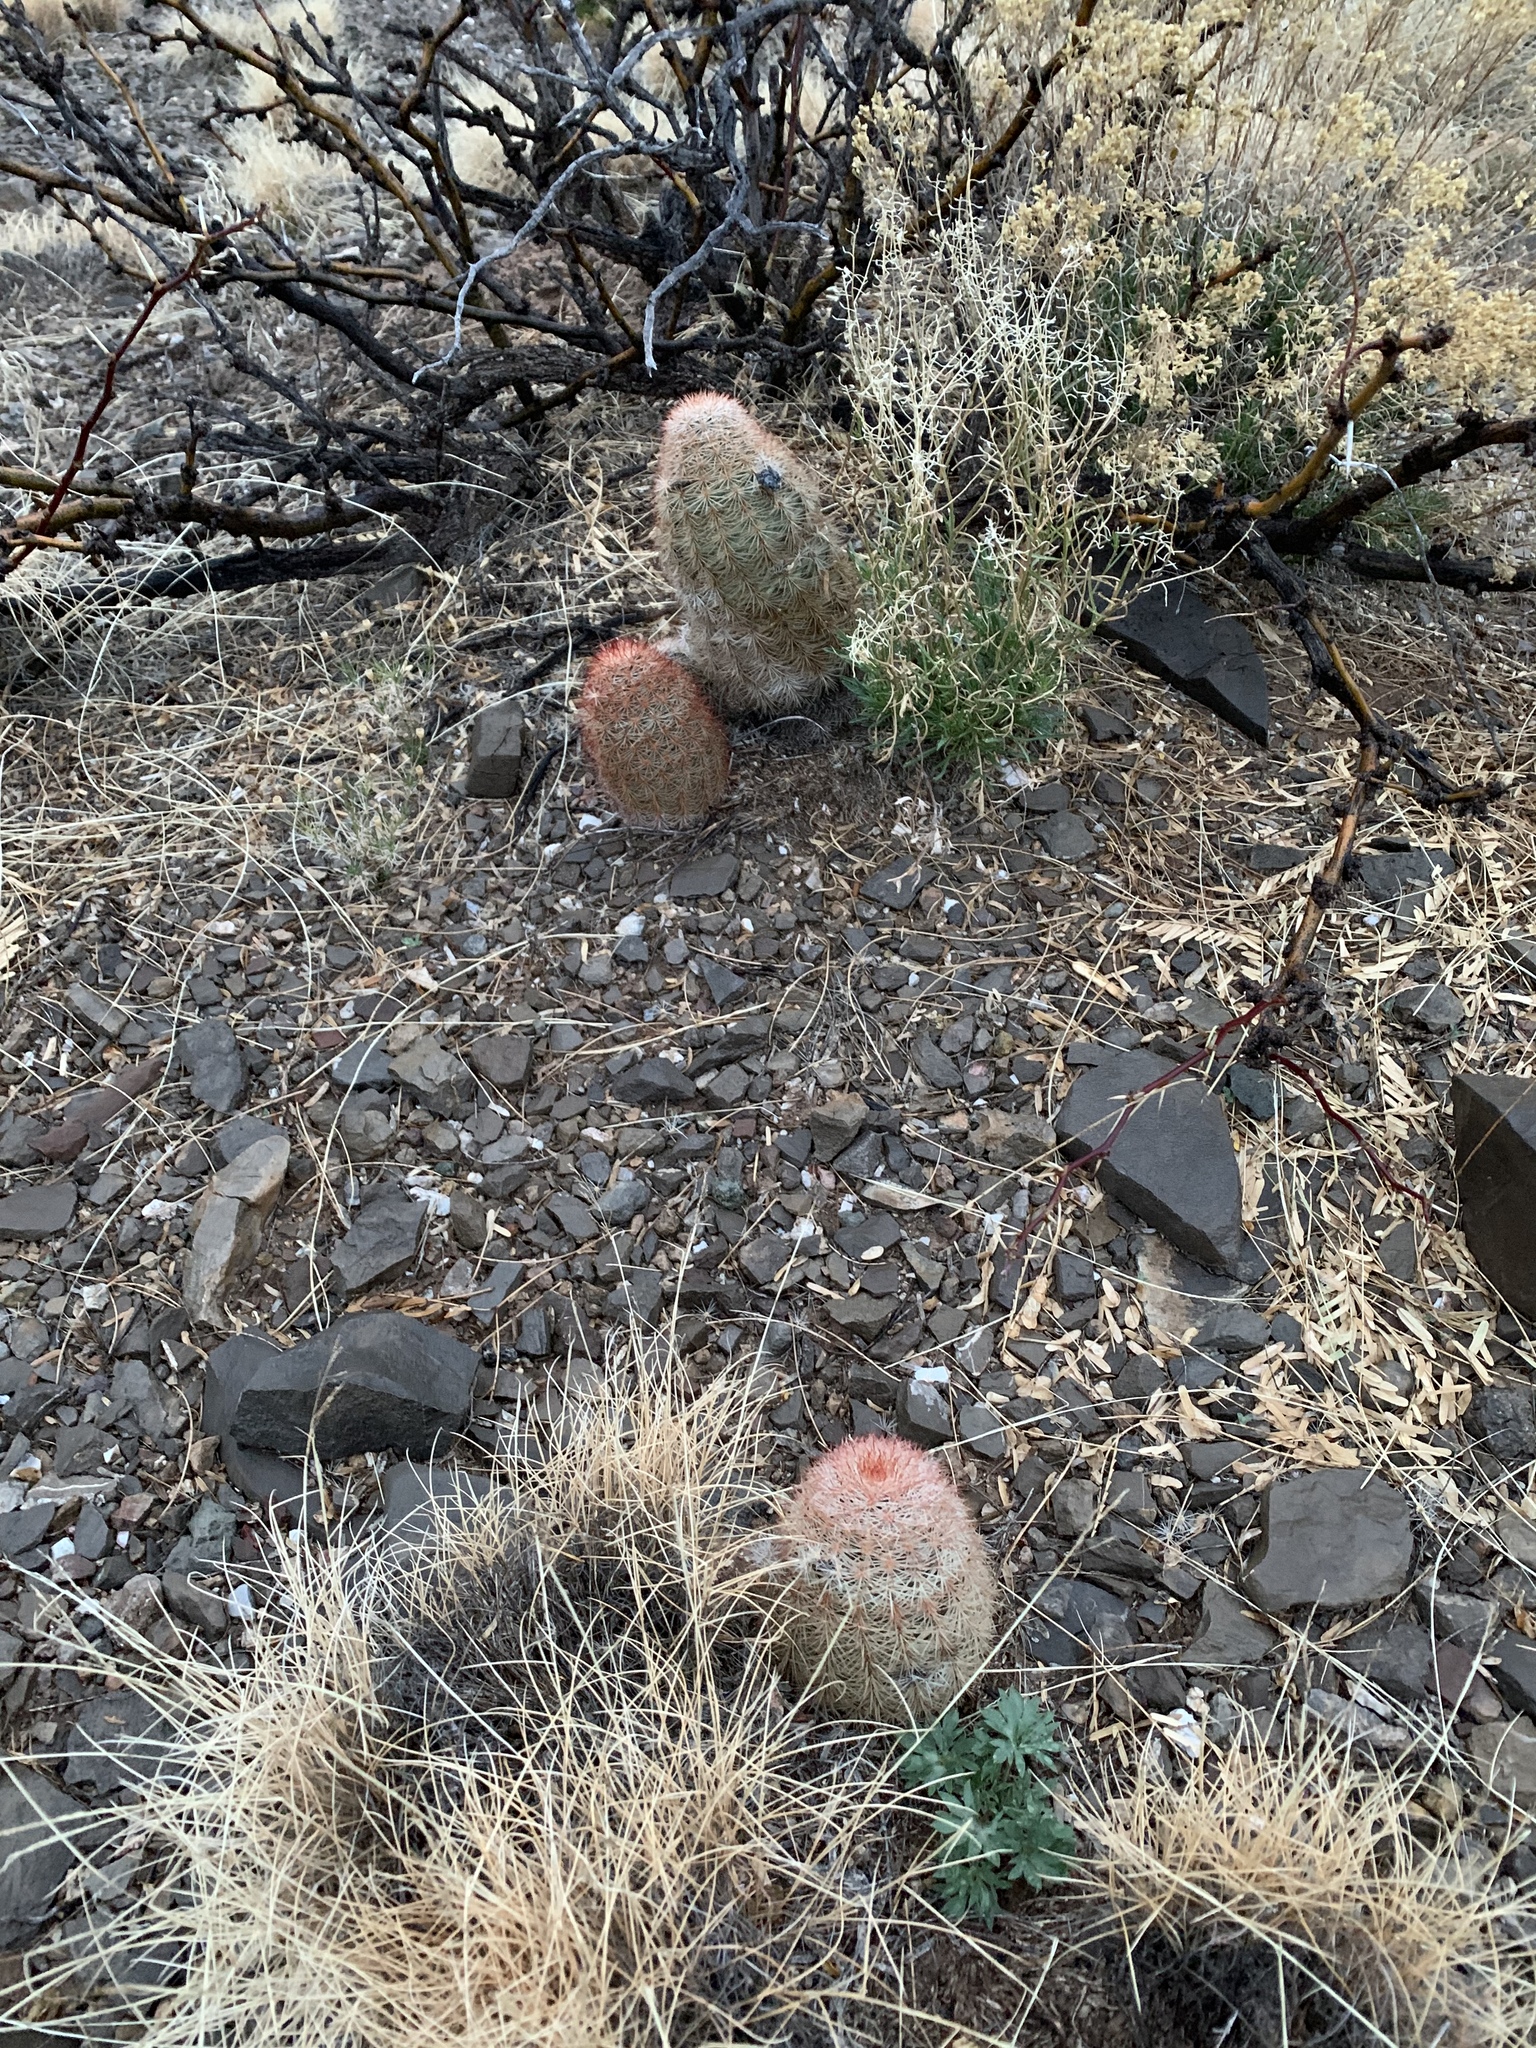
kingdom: Plantae
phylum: Tracheophyta
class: Magnoliopsida
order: Caryophyllales
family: Cactaceae
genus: Echinocereus
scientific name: Echinocereus dasyacanthus
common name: Spiny hedgehog cactus
